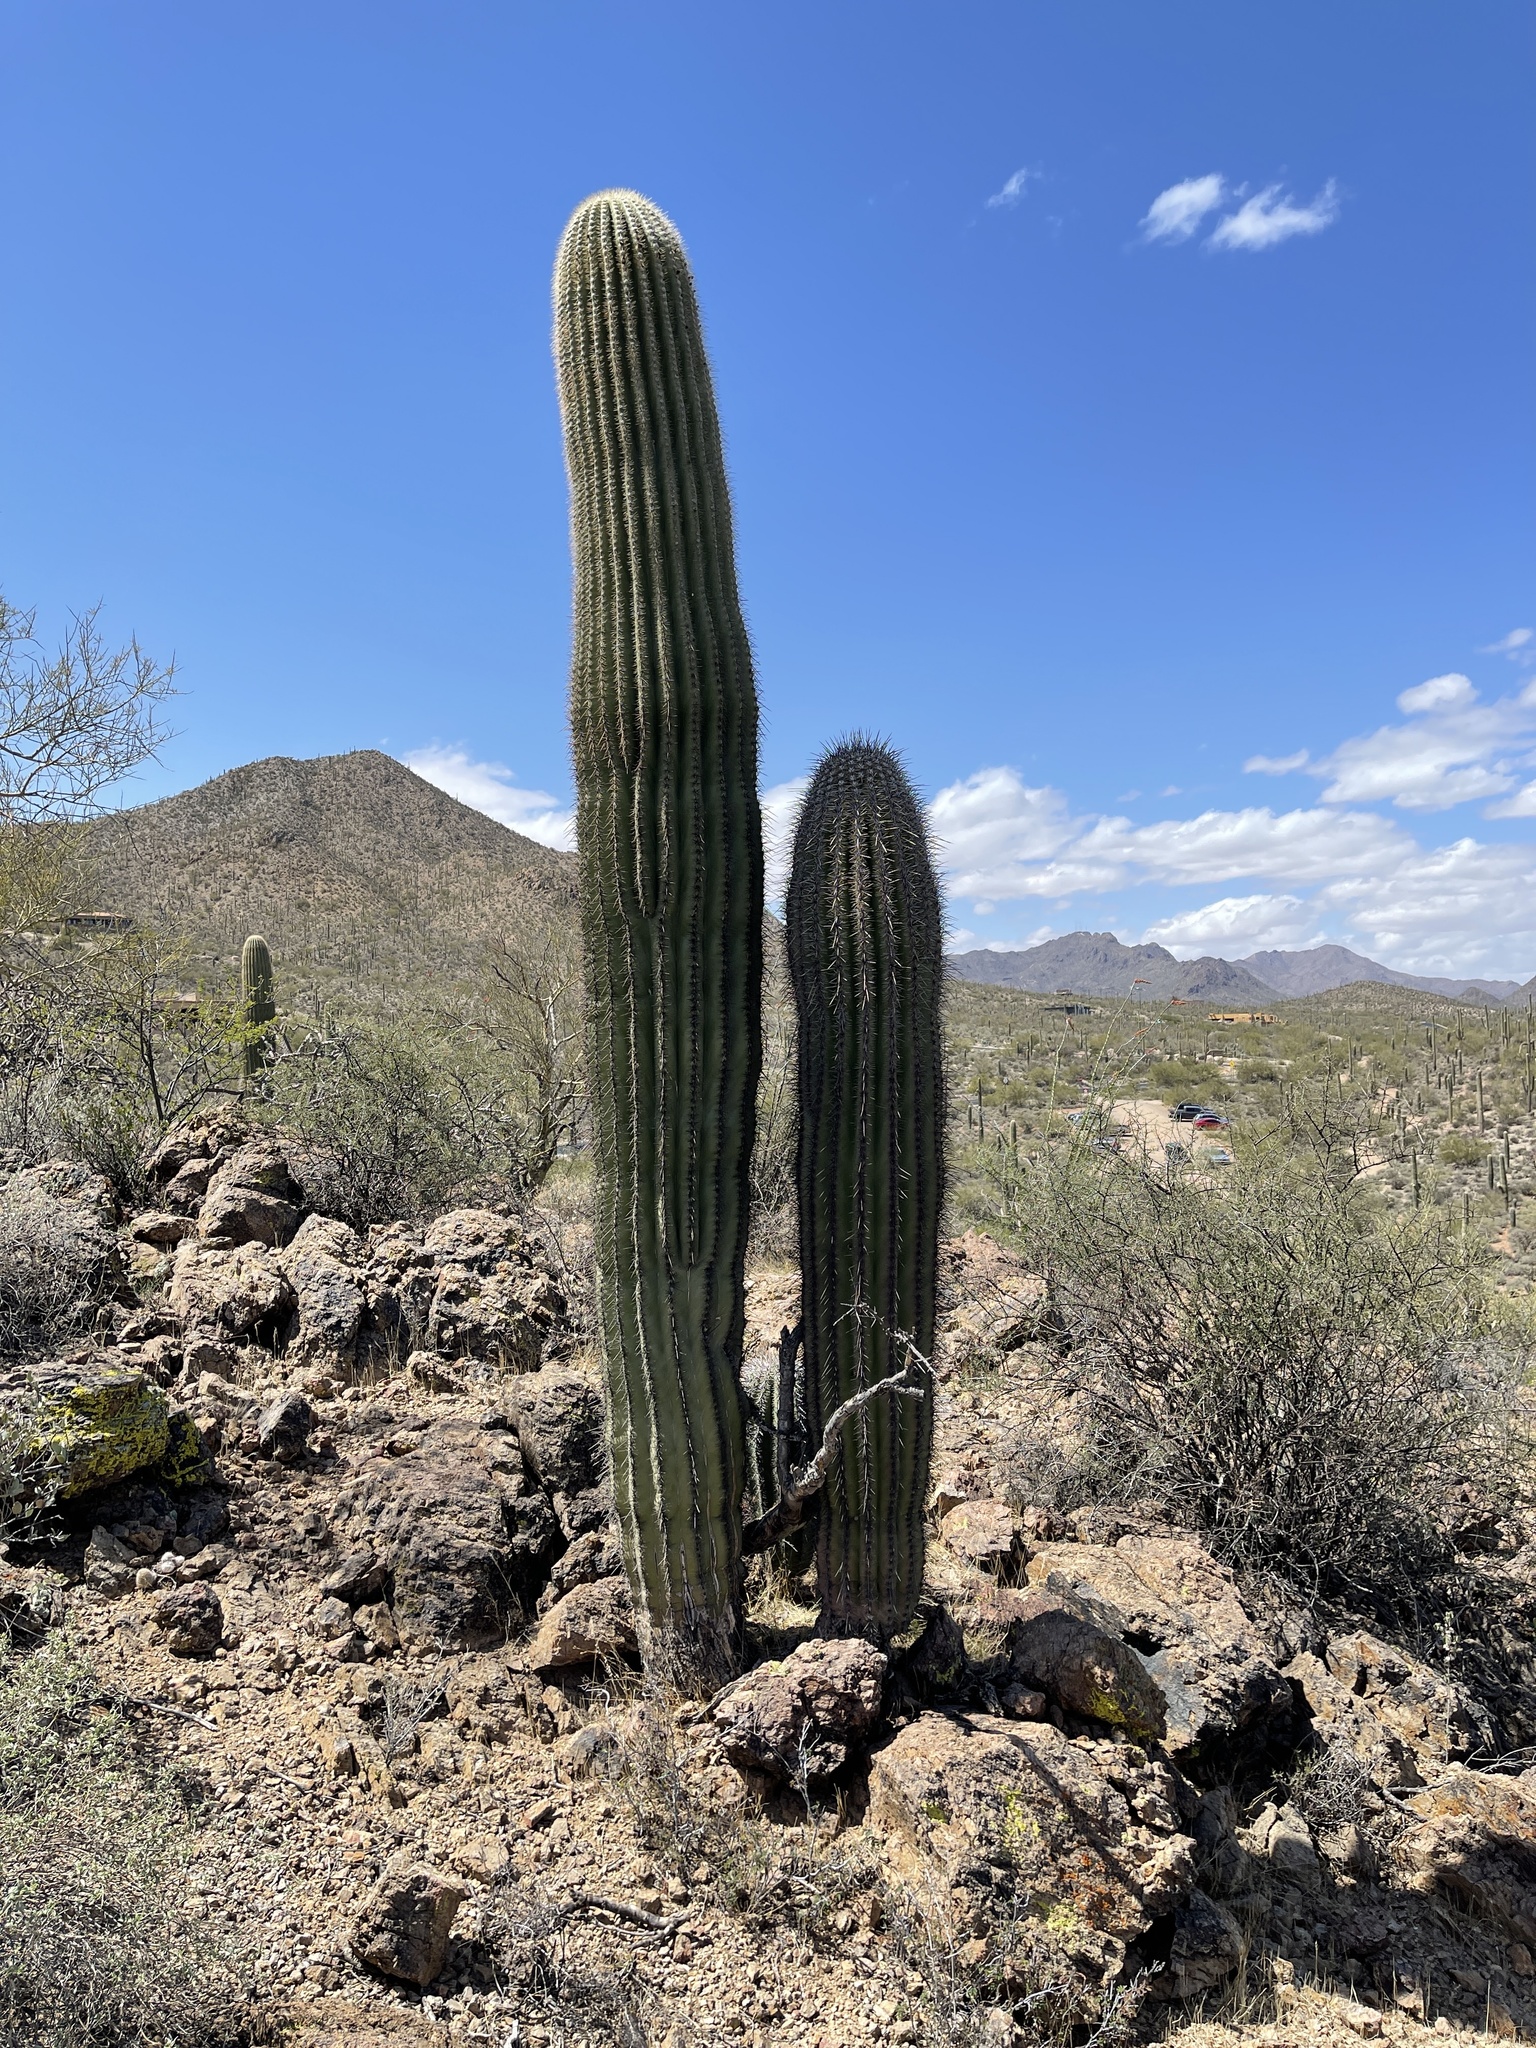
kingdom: Plantae
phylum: Tracheophyta
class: Magnoliopsida
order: Caryophyllales
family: Cactaceae
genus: Carnegiea
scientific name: Carnegiea gigantea
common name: Saguaro
